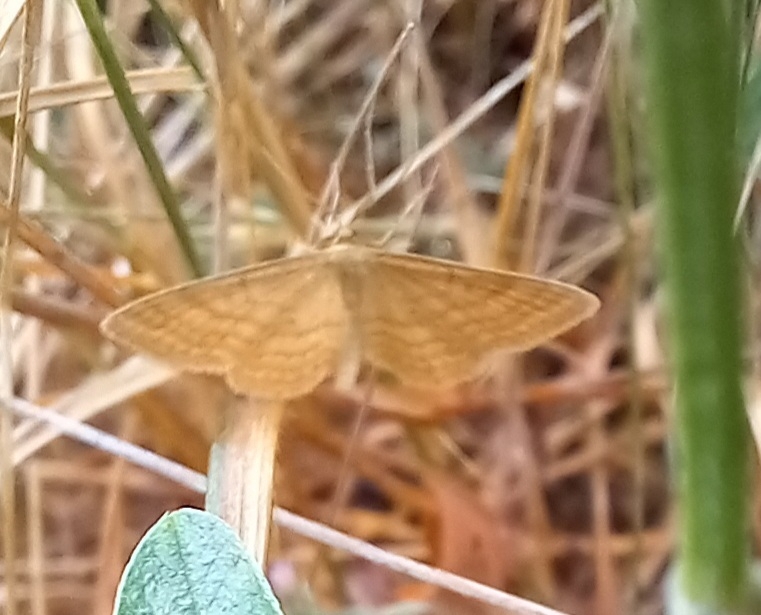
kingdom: Animalia
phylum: Arthropoda
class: Insecta
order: Lepidoptera
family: Geometridae
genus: Idaea
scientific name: Idaea ochrata
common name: Bright wave
